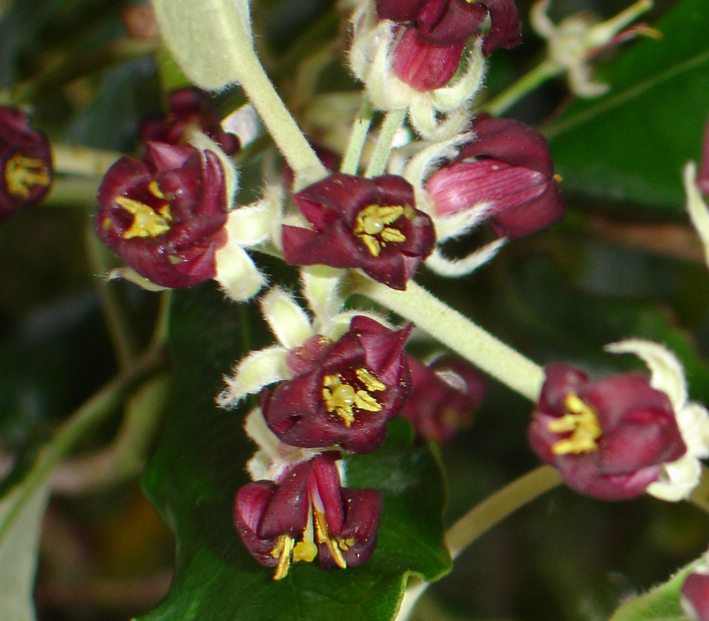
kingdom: Plantae
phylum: Tracheophyta
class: Magnoliopsida
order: Apiales
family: Pittosporaceae
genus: Pittosporum
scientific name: Pittosporum ralphii
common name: Ralph's desertwillow
